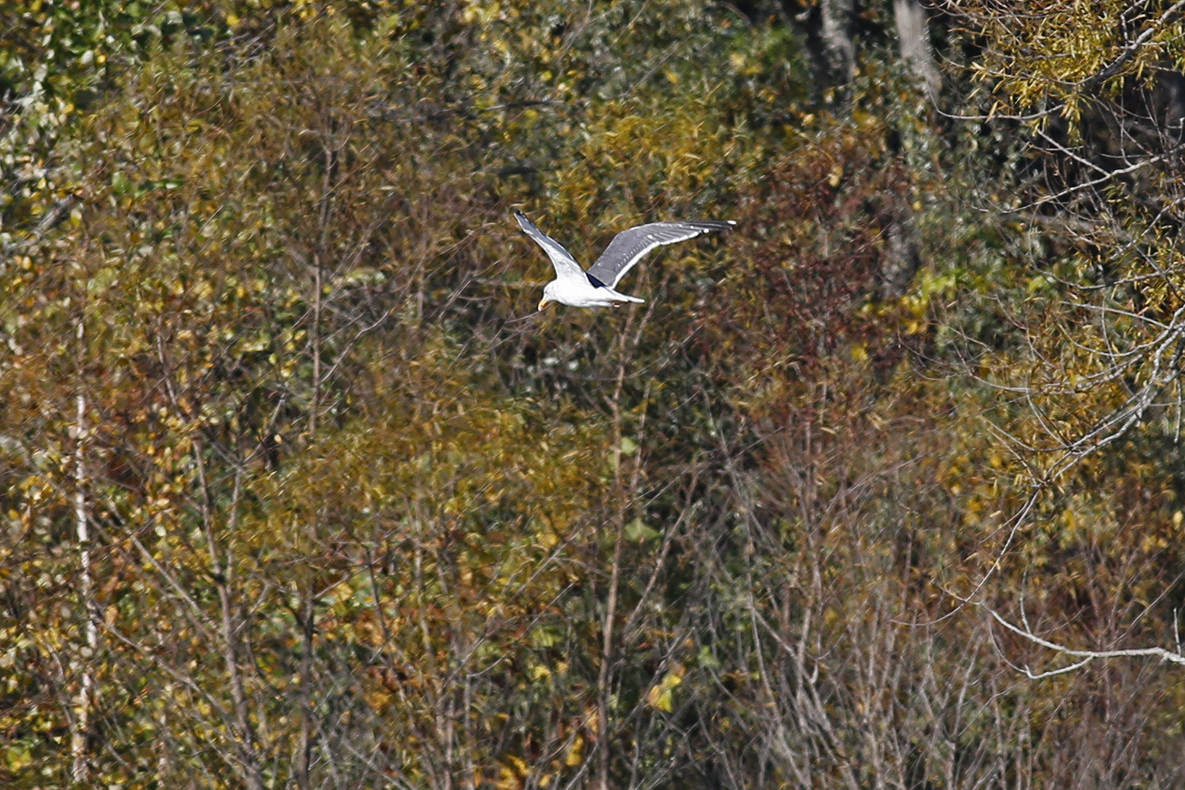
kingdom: Animalia
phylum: Chordata
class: Aves
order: Charadriiformes
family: Laridae
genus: Larus
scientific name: Larus fuscus
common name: Lesser black-backed gull
